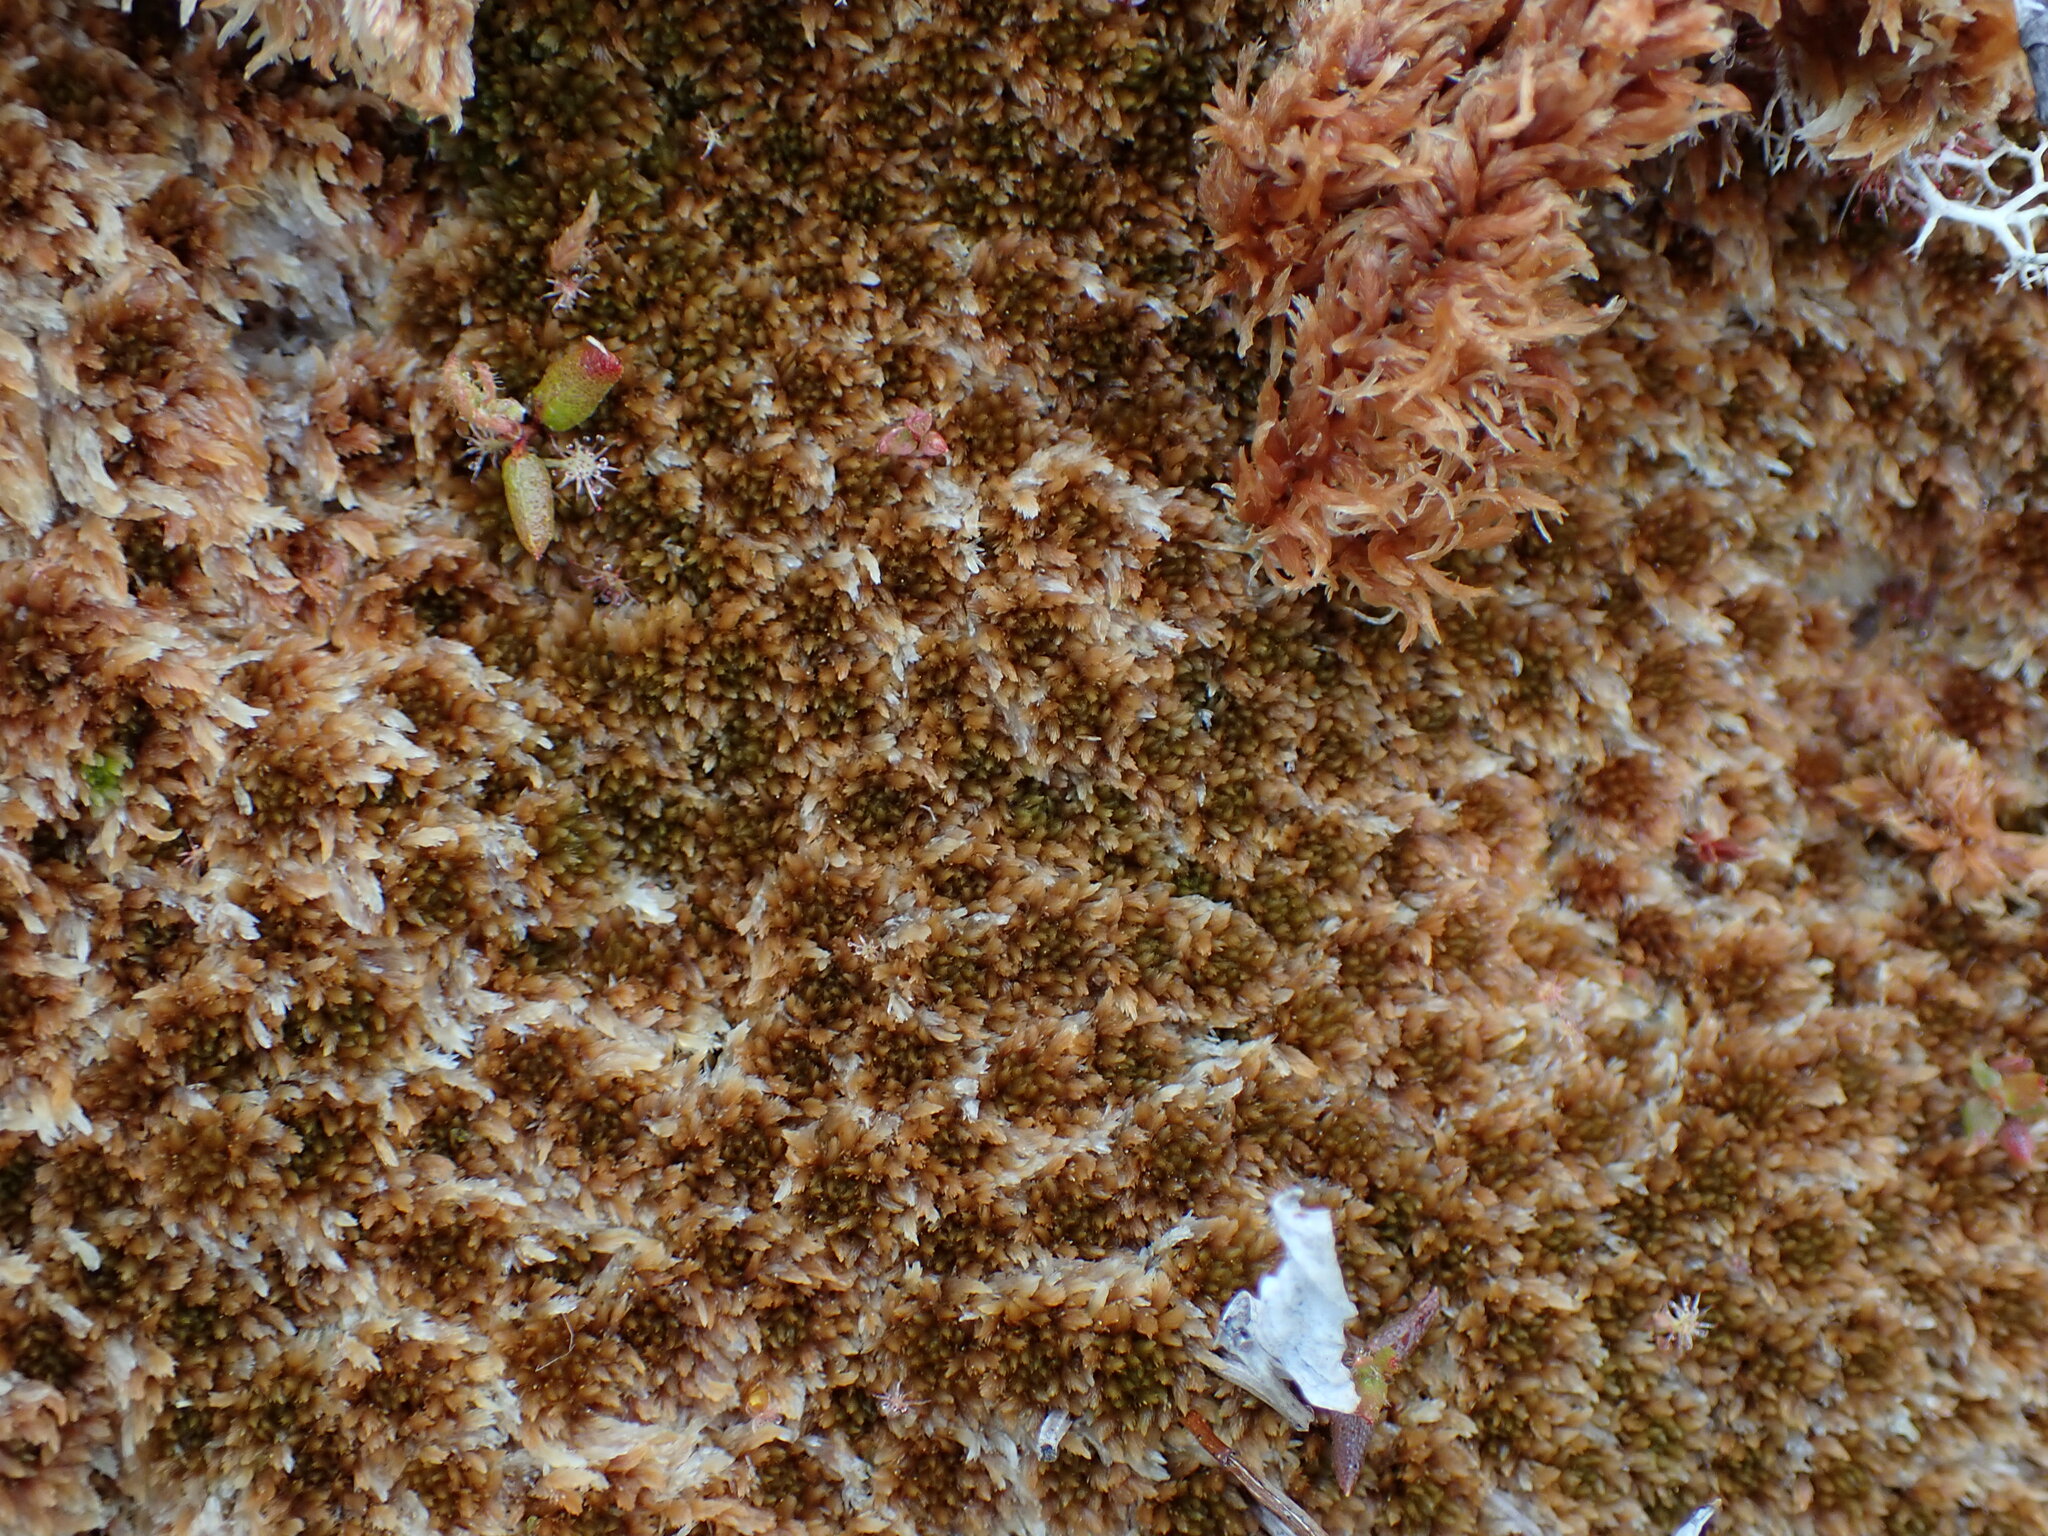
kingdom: Plantae
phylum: Bryophyta
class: Sphagnopsida
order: Sphagnales
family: Sphagnaceae
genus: Sphagnum
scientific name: Sphagnum fuscum
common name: Brown peat moss
